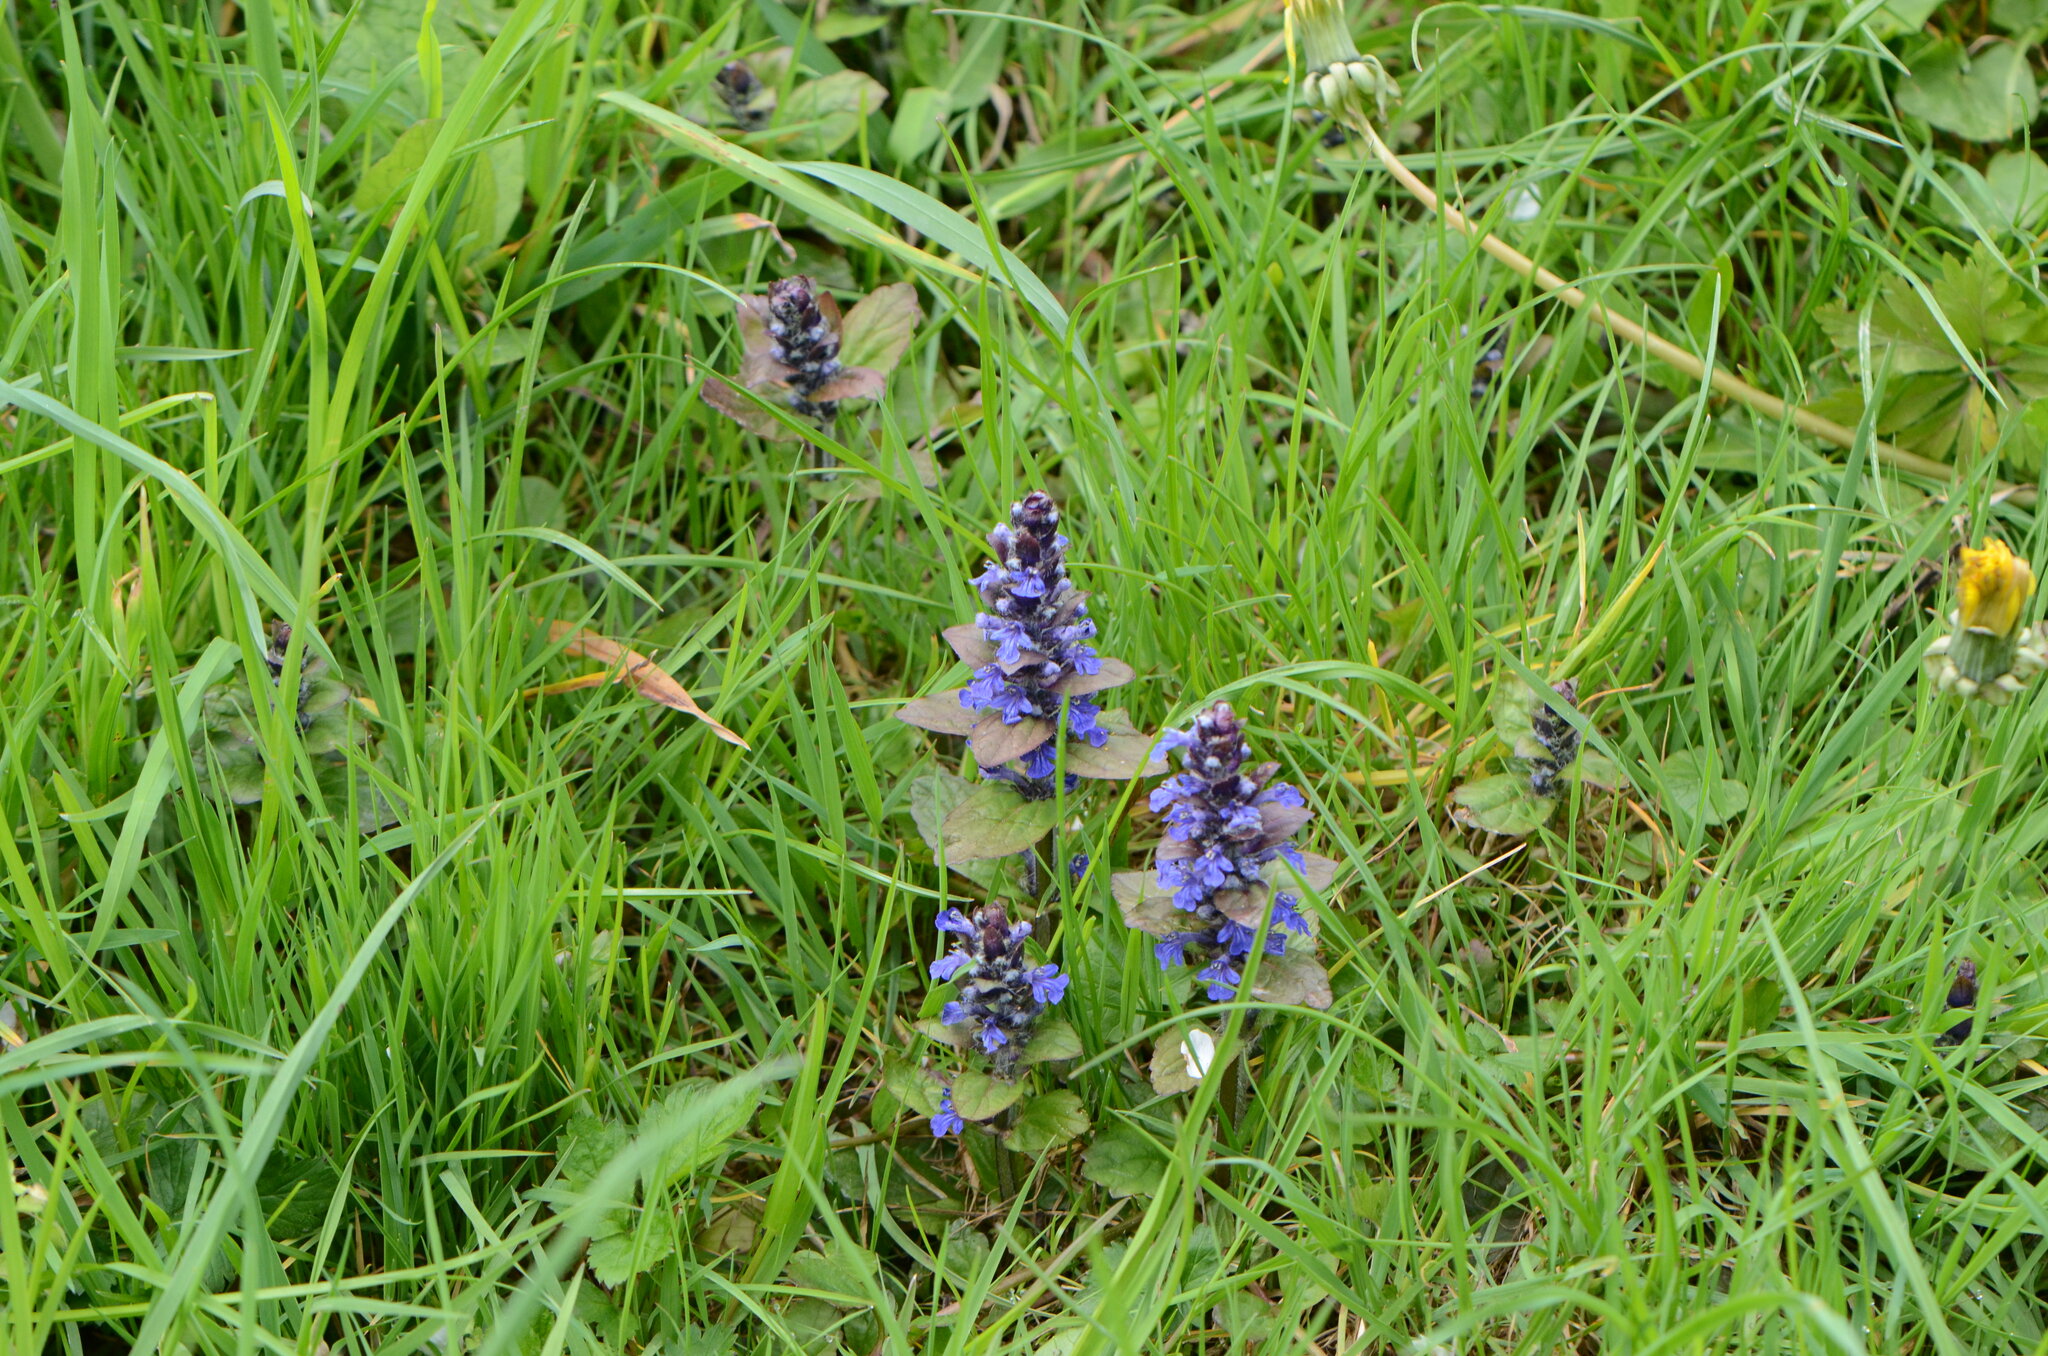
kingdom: Plantae
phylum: Tracheophyta
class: Magnoliopsida
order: Lamiales
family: Lamiaceae
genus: Ajuga
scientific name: Ajuga reptans
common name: Bugle
